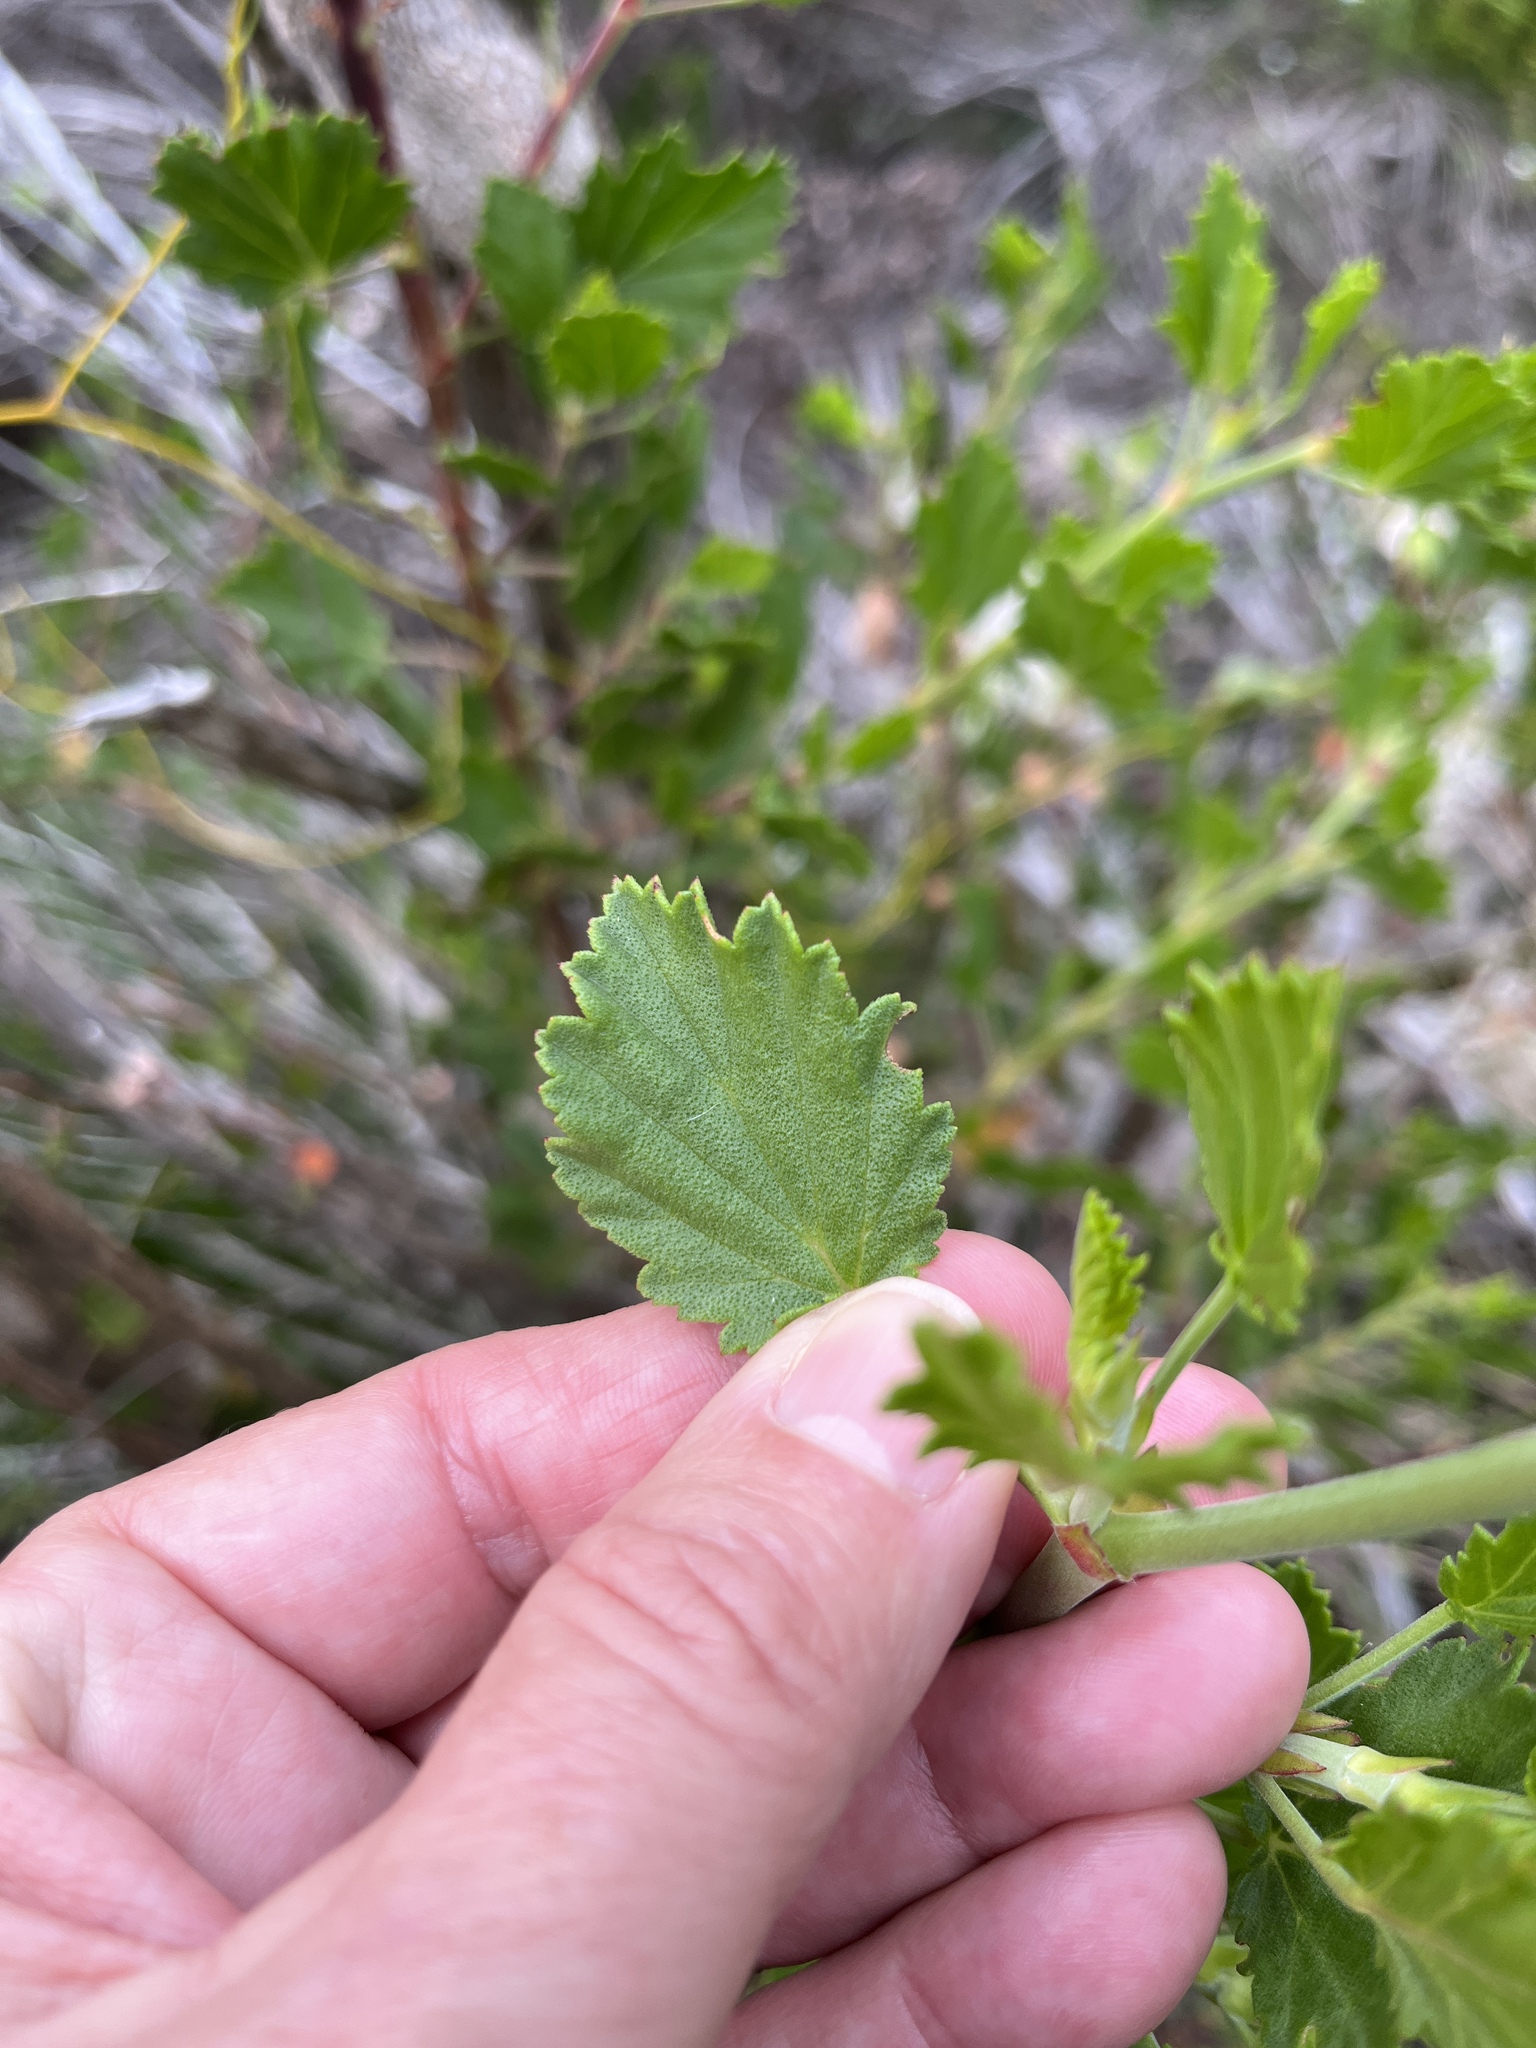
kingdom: Plantae
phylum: Tracheophyta
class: Magnoliopsida
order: Geraniales
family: Geraniaceae
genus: Pelargonium
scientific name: Pelargonium betulinum
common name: Birch-leaf pelargonium
